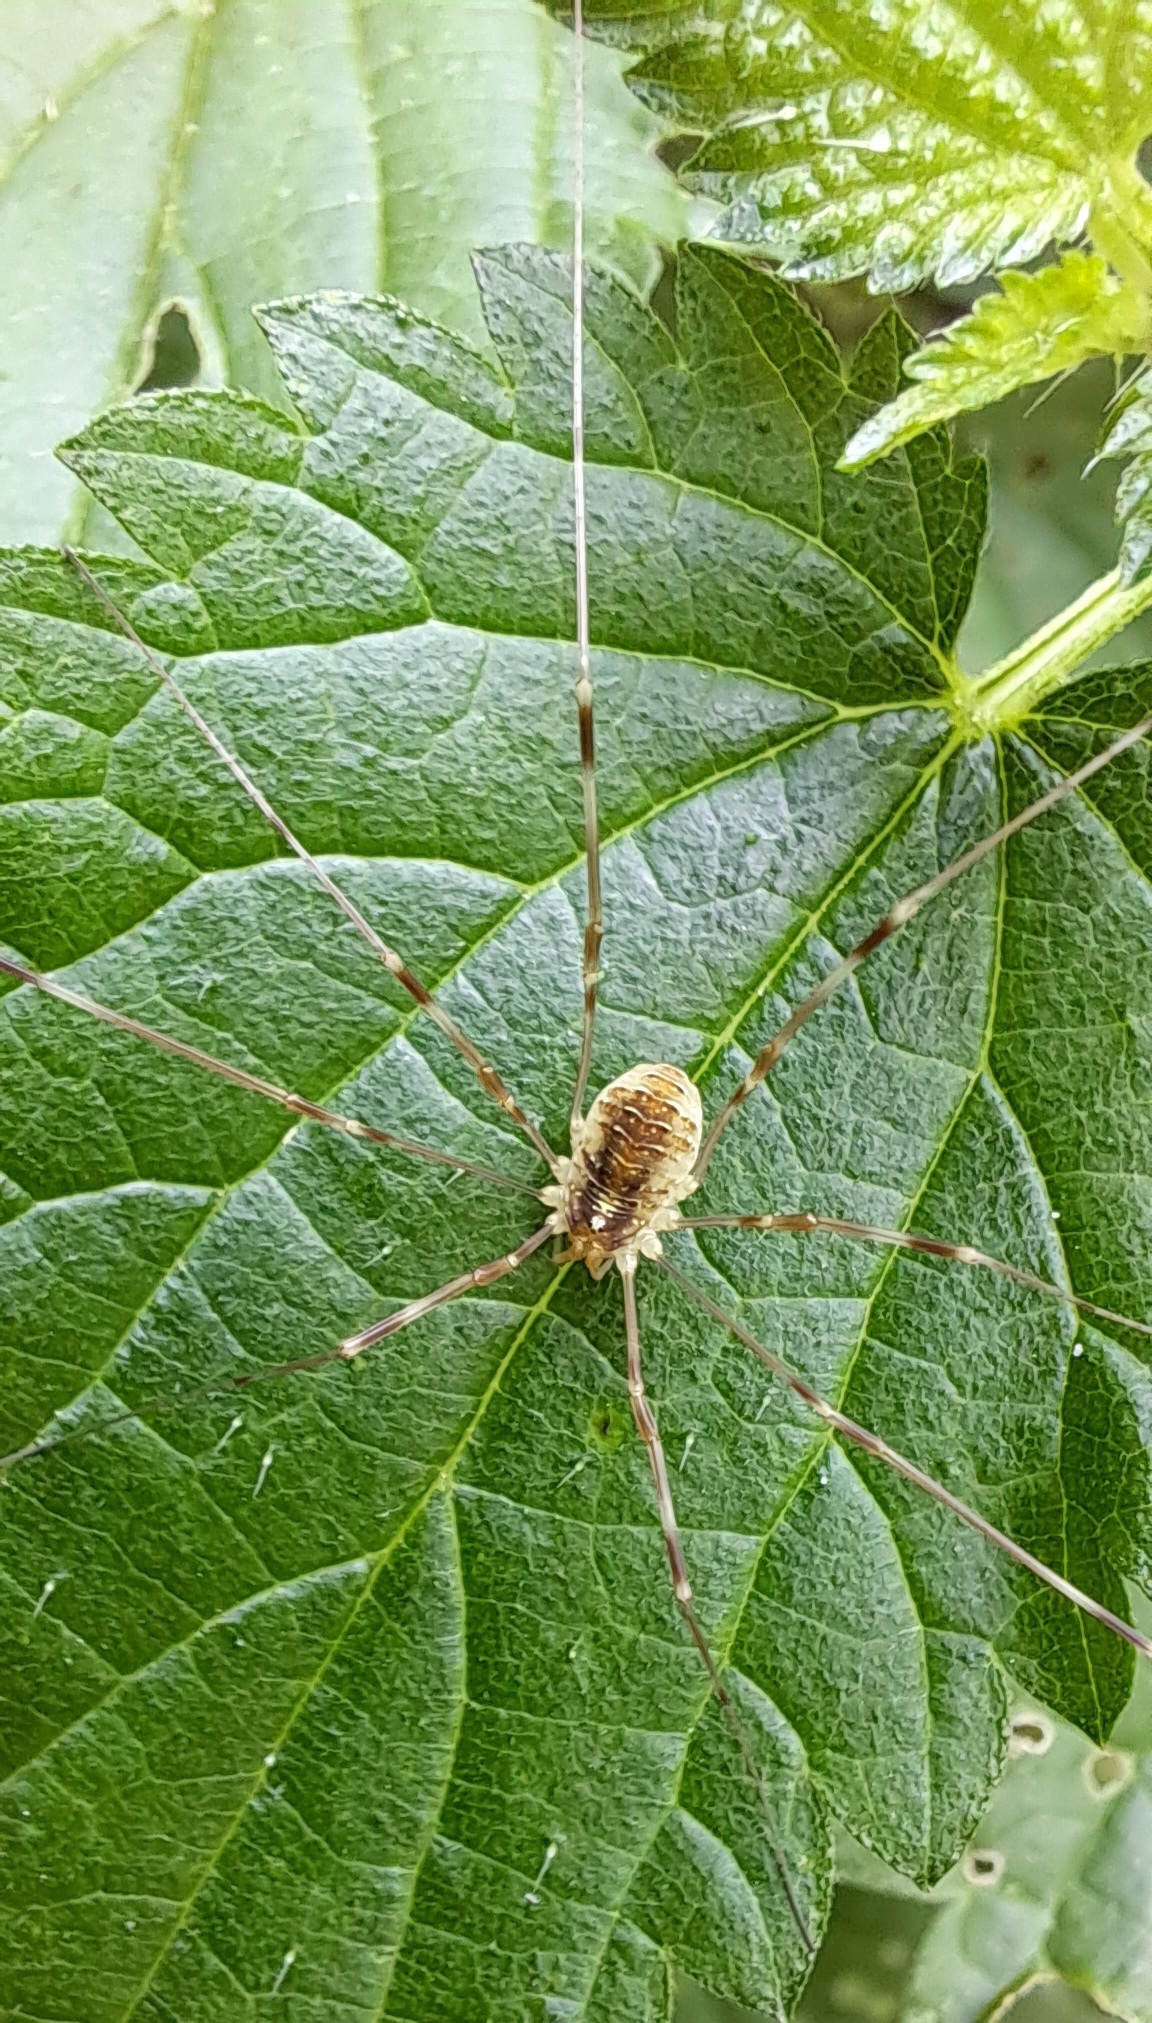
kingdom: Animalia
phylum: Arthropoda
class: Arachnida
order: Opiliones
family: Phalangiidae
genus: Opilio
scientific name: Opilio canestrinii
